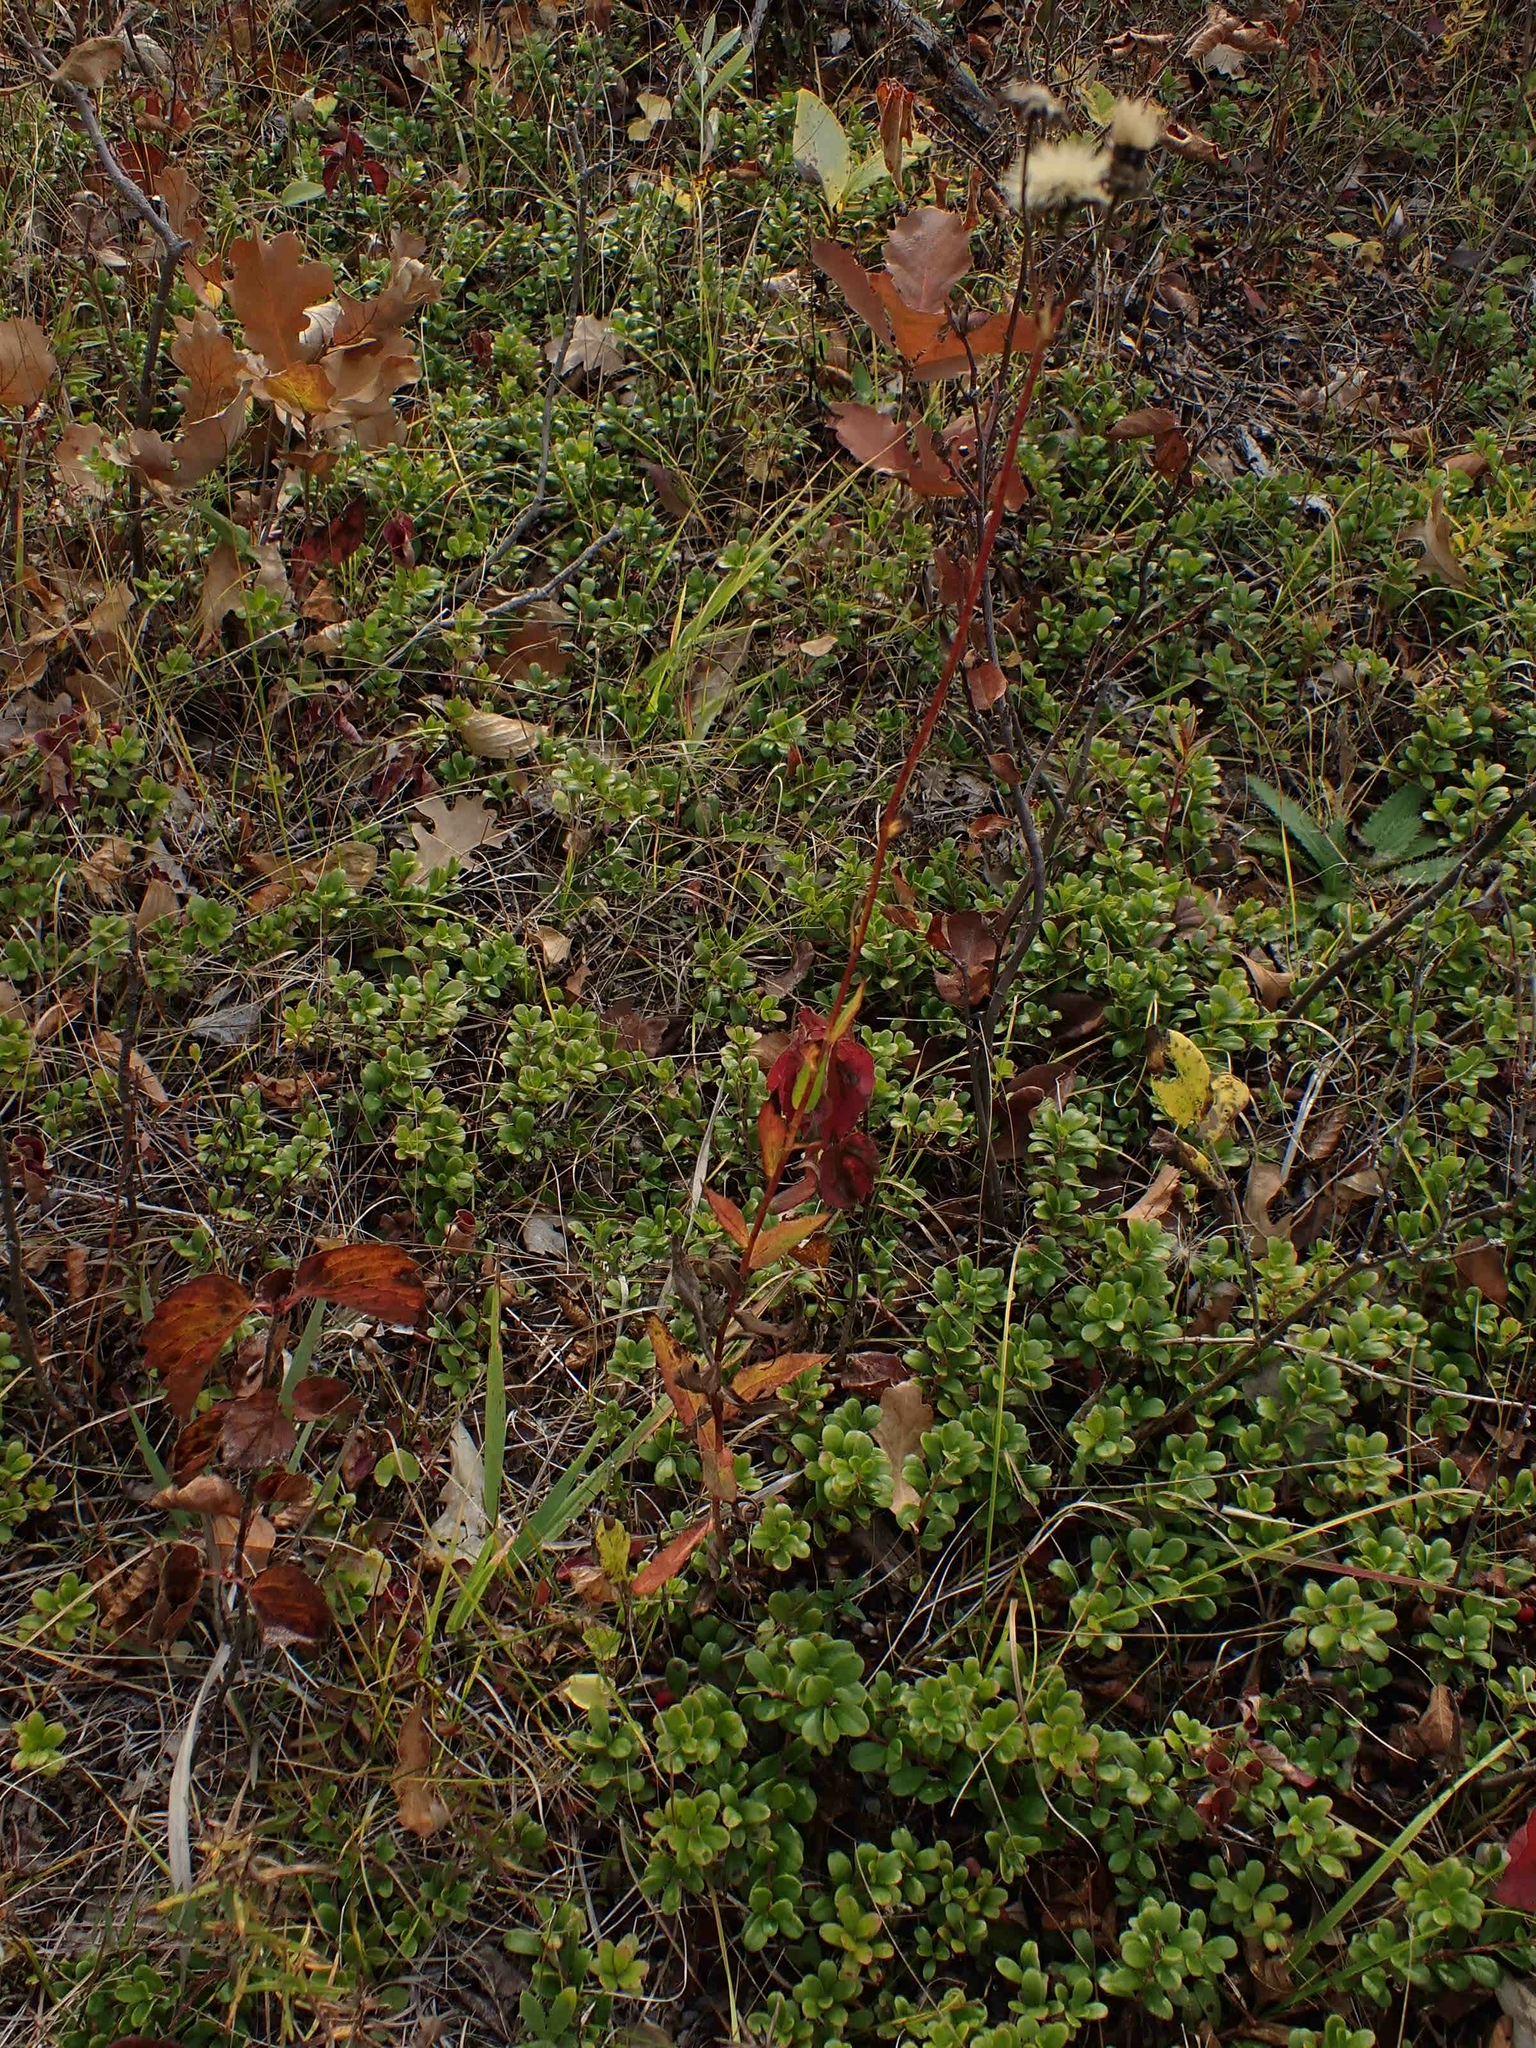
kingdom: Plantae
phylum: Tracheophyta
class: Magnoliopsida
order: Asterales
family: Asteraceae
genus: Hieracium
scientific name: Hieracium umbellatum
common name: Northern hawkweed
